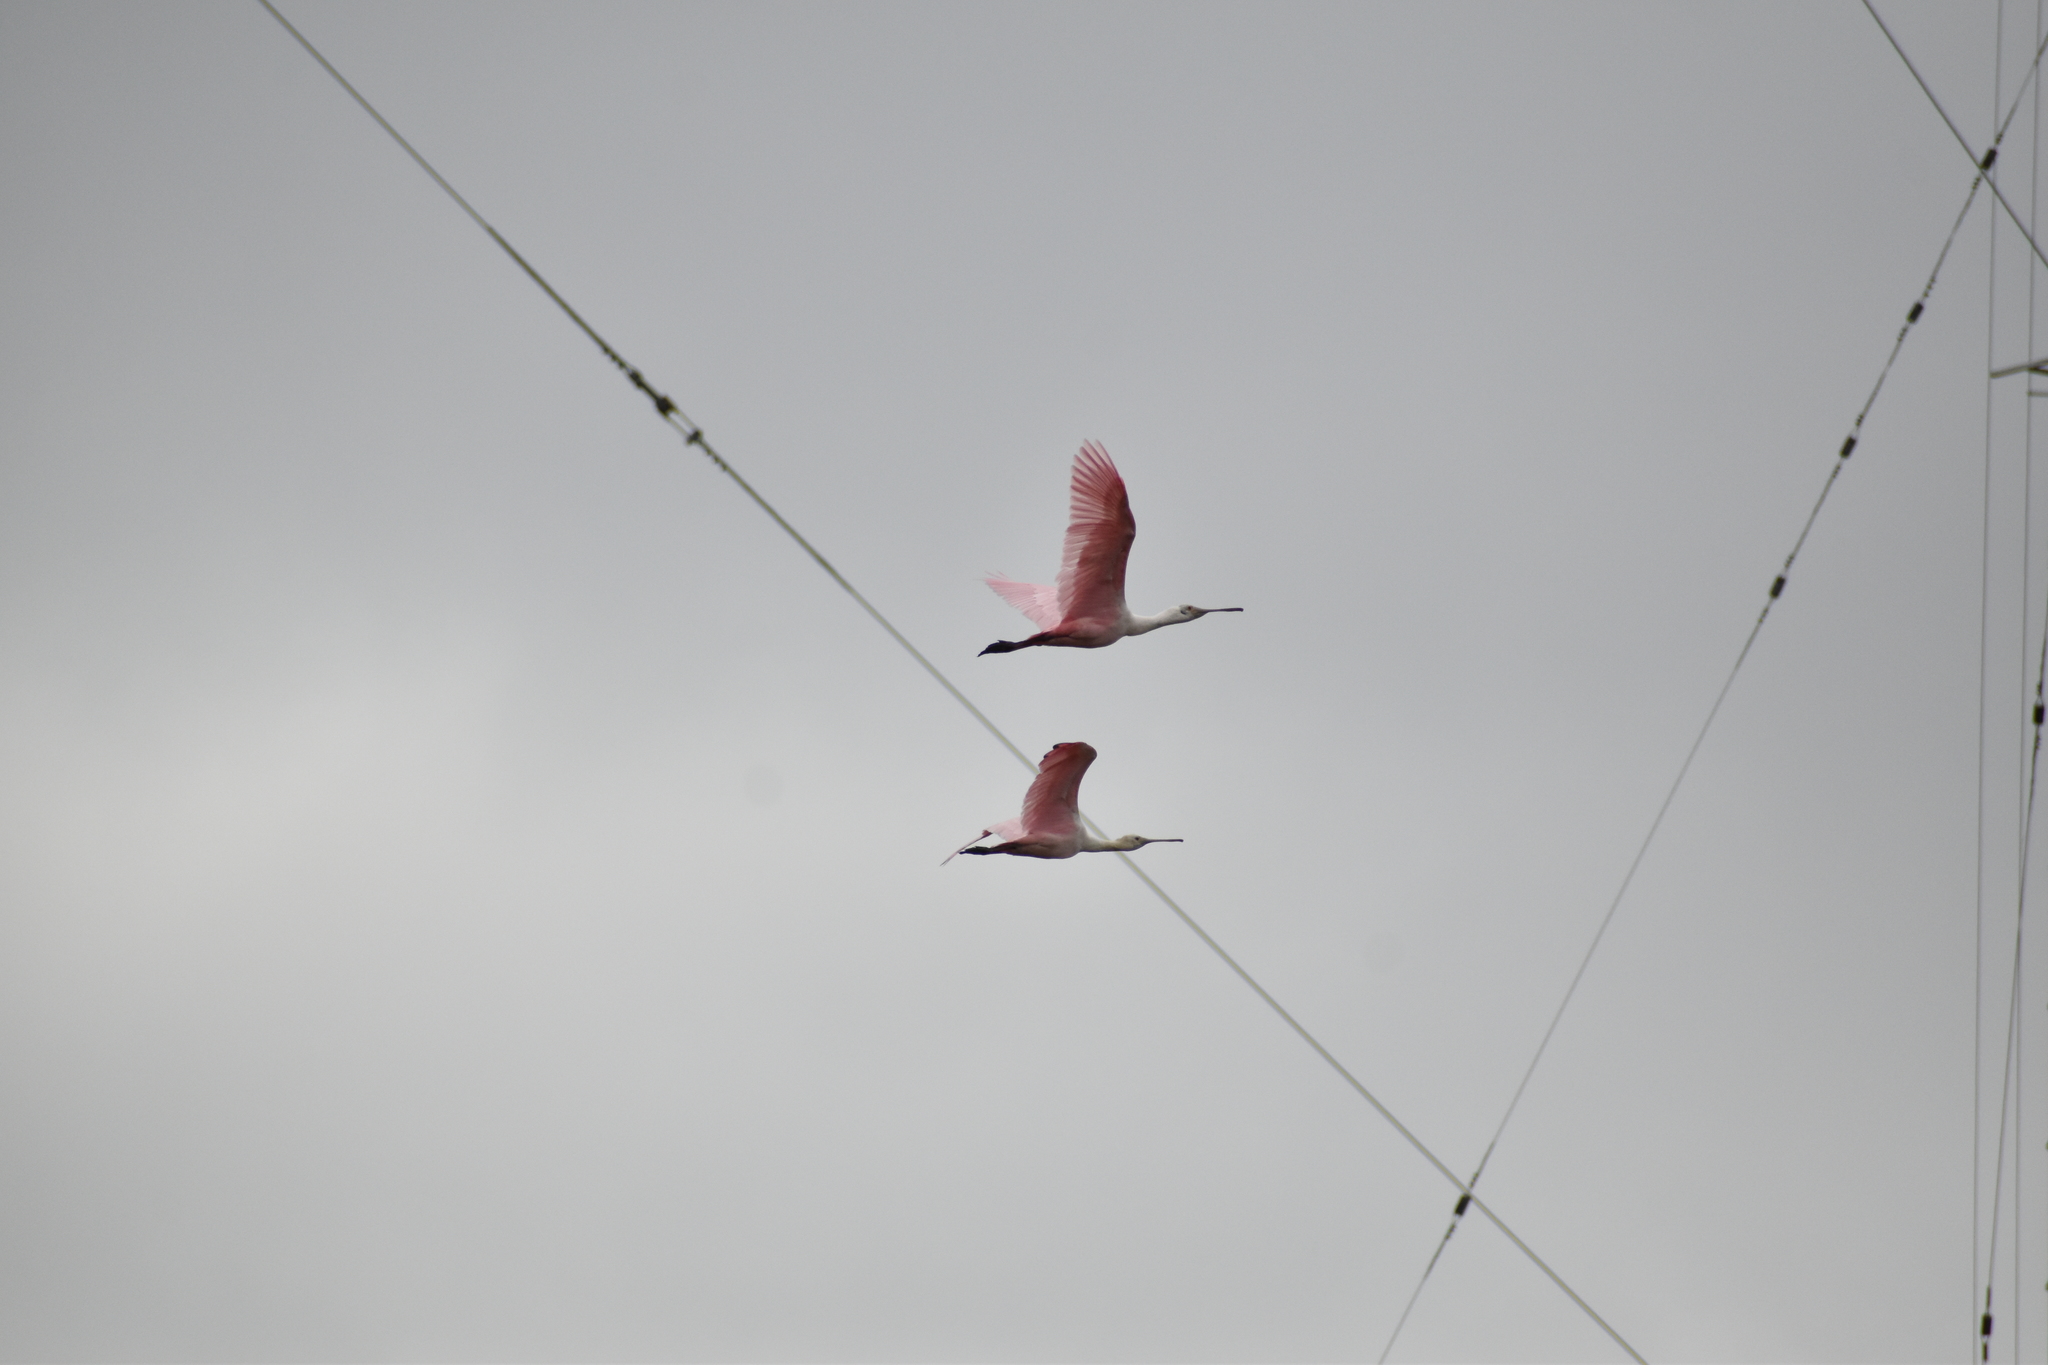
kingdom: Animalia
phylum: Chordata
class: Aves
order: Pelecaniformes
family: Threskiornithidae
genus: Platalea
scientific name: Platalea ajaja
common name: Roseate spoonbill
